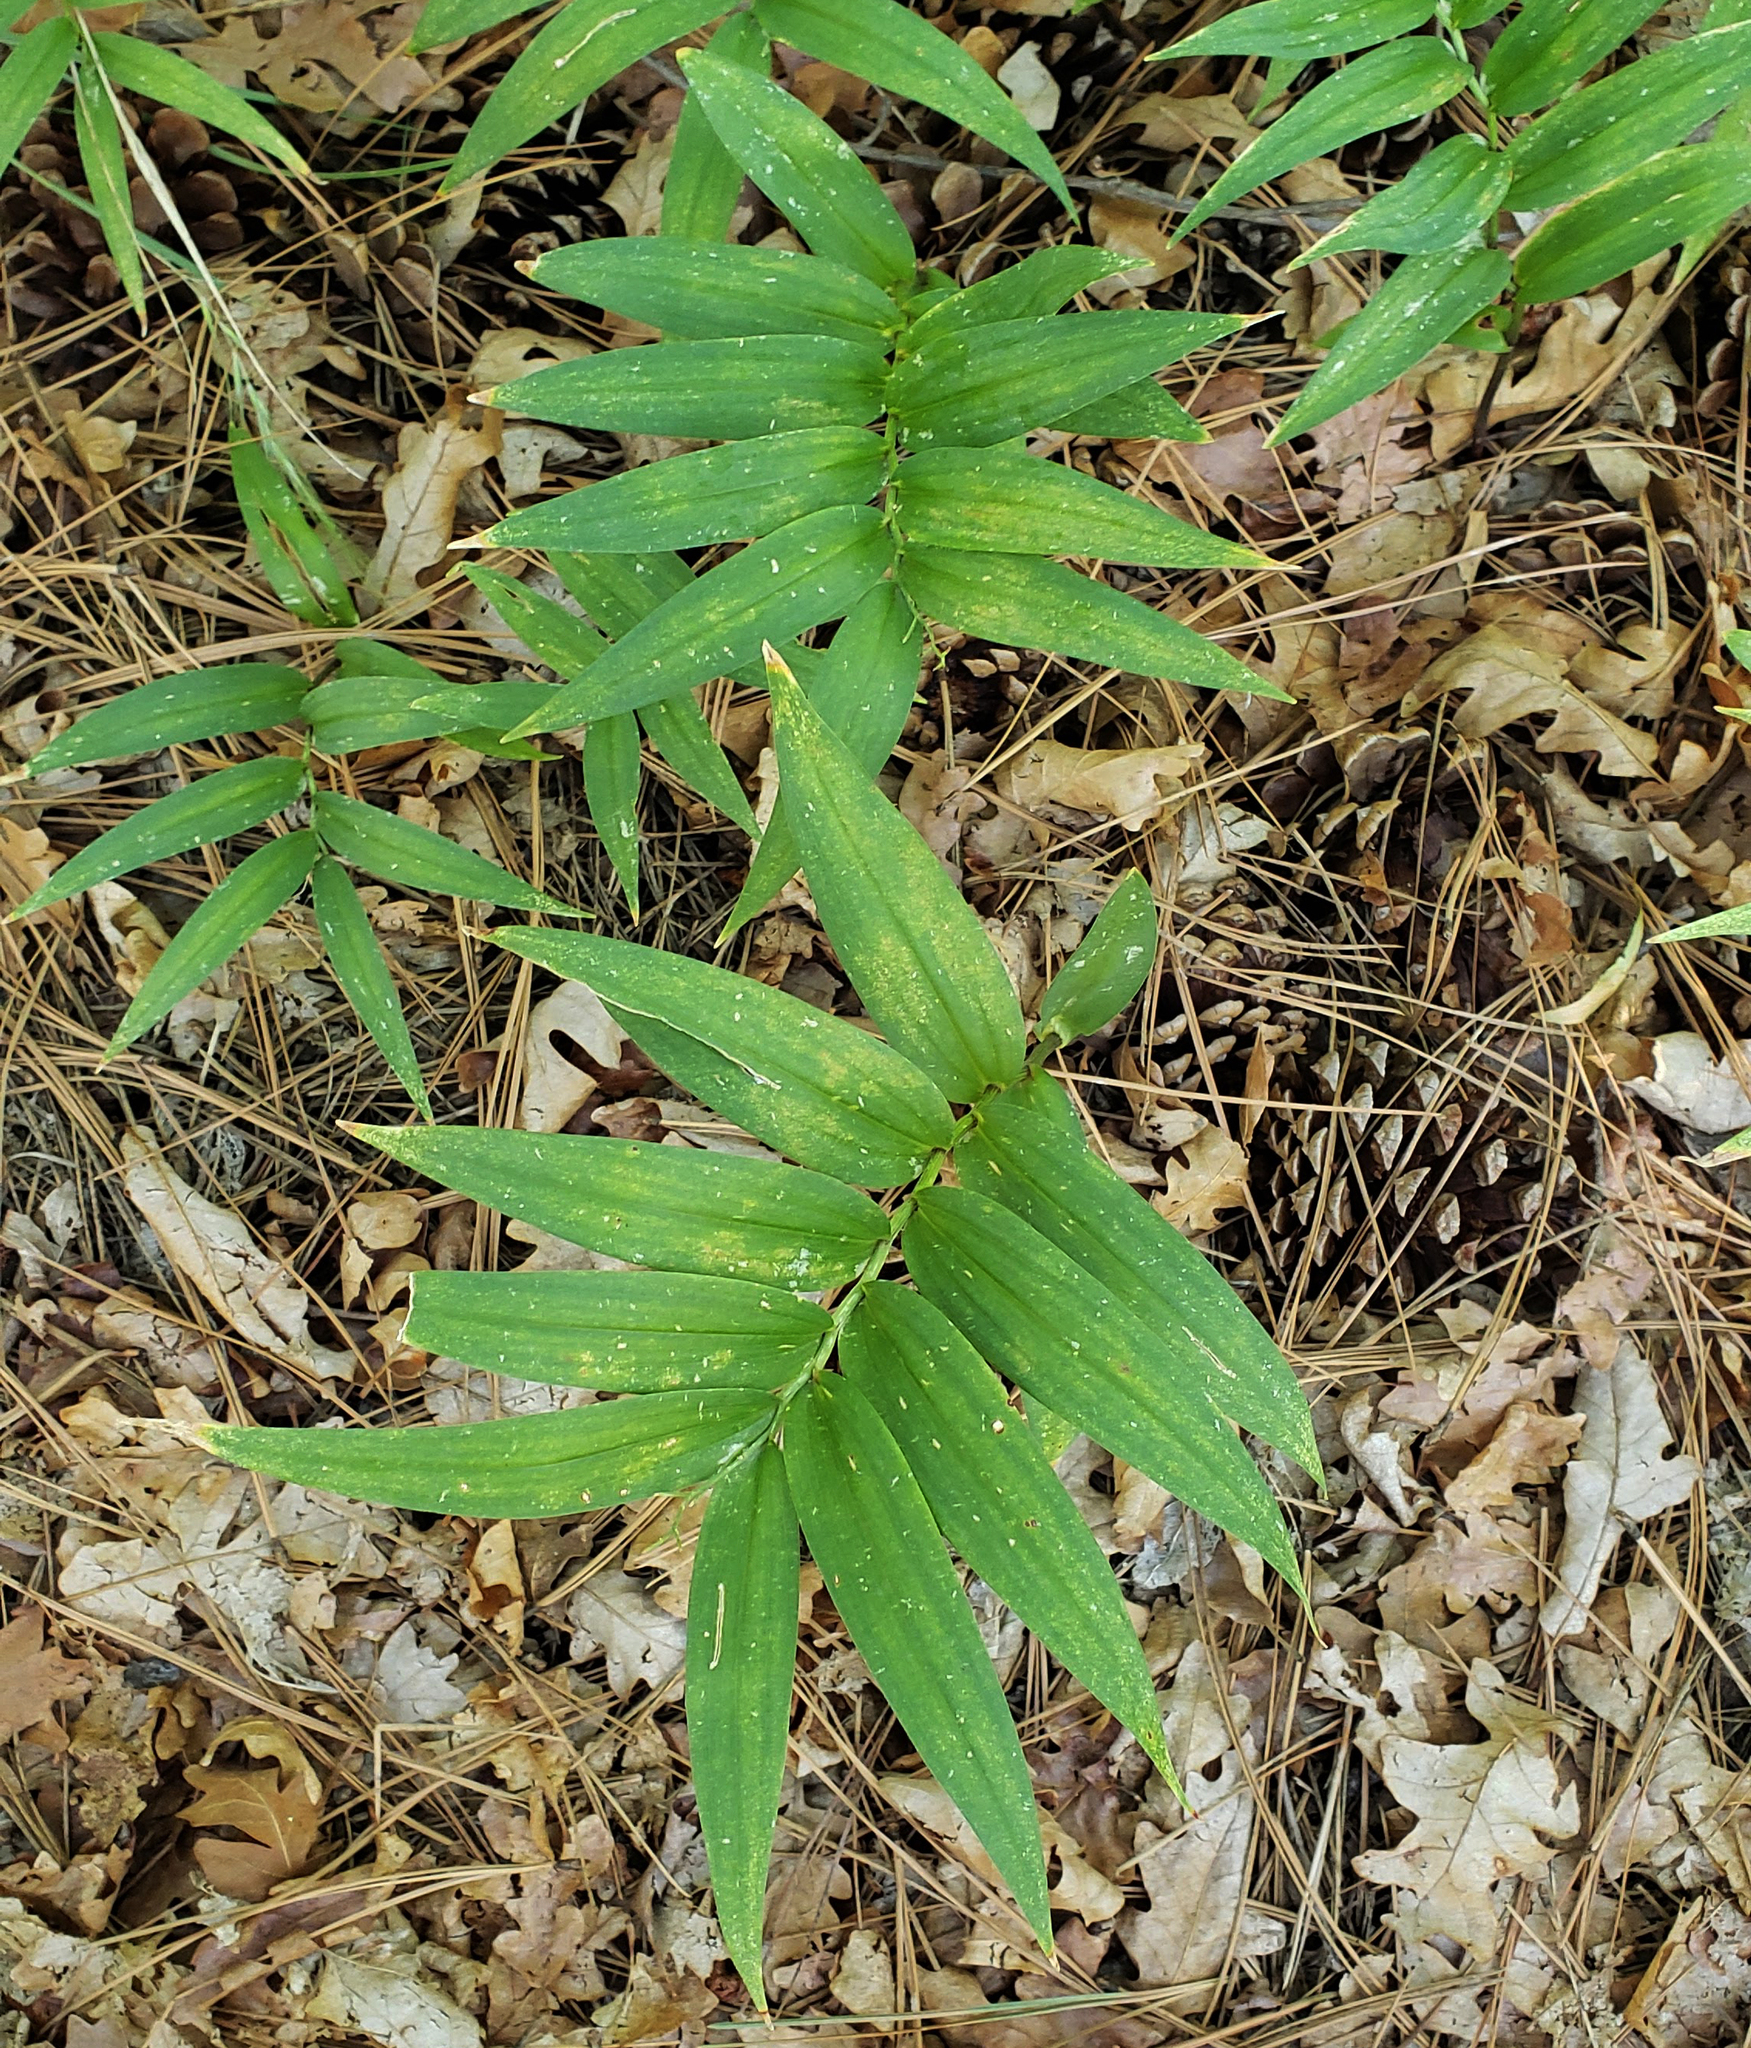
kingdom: Plantae
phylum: Tracheophyta
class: Liliopsida
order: Asparagales
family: Asparagaceae
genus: Maianthemum
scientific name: Maianthemum stellatum
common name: Little false solomon's seal
